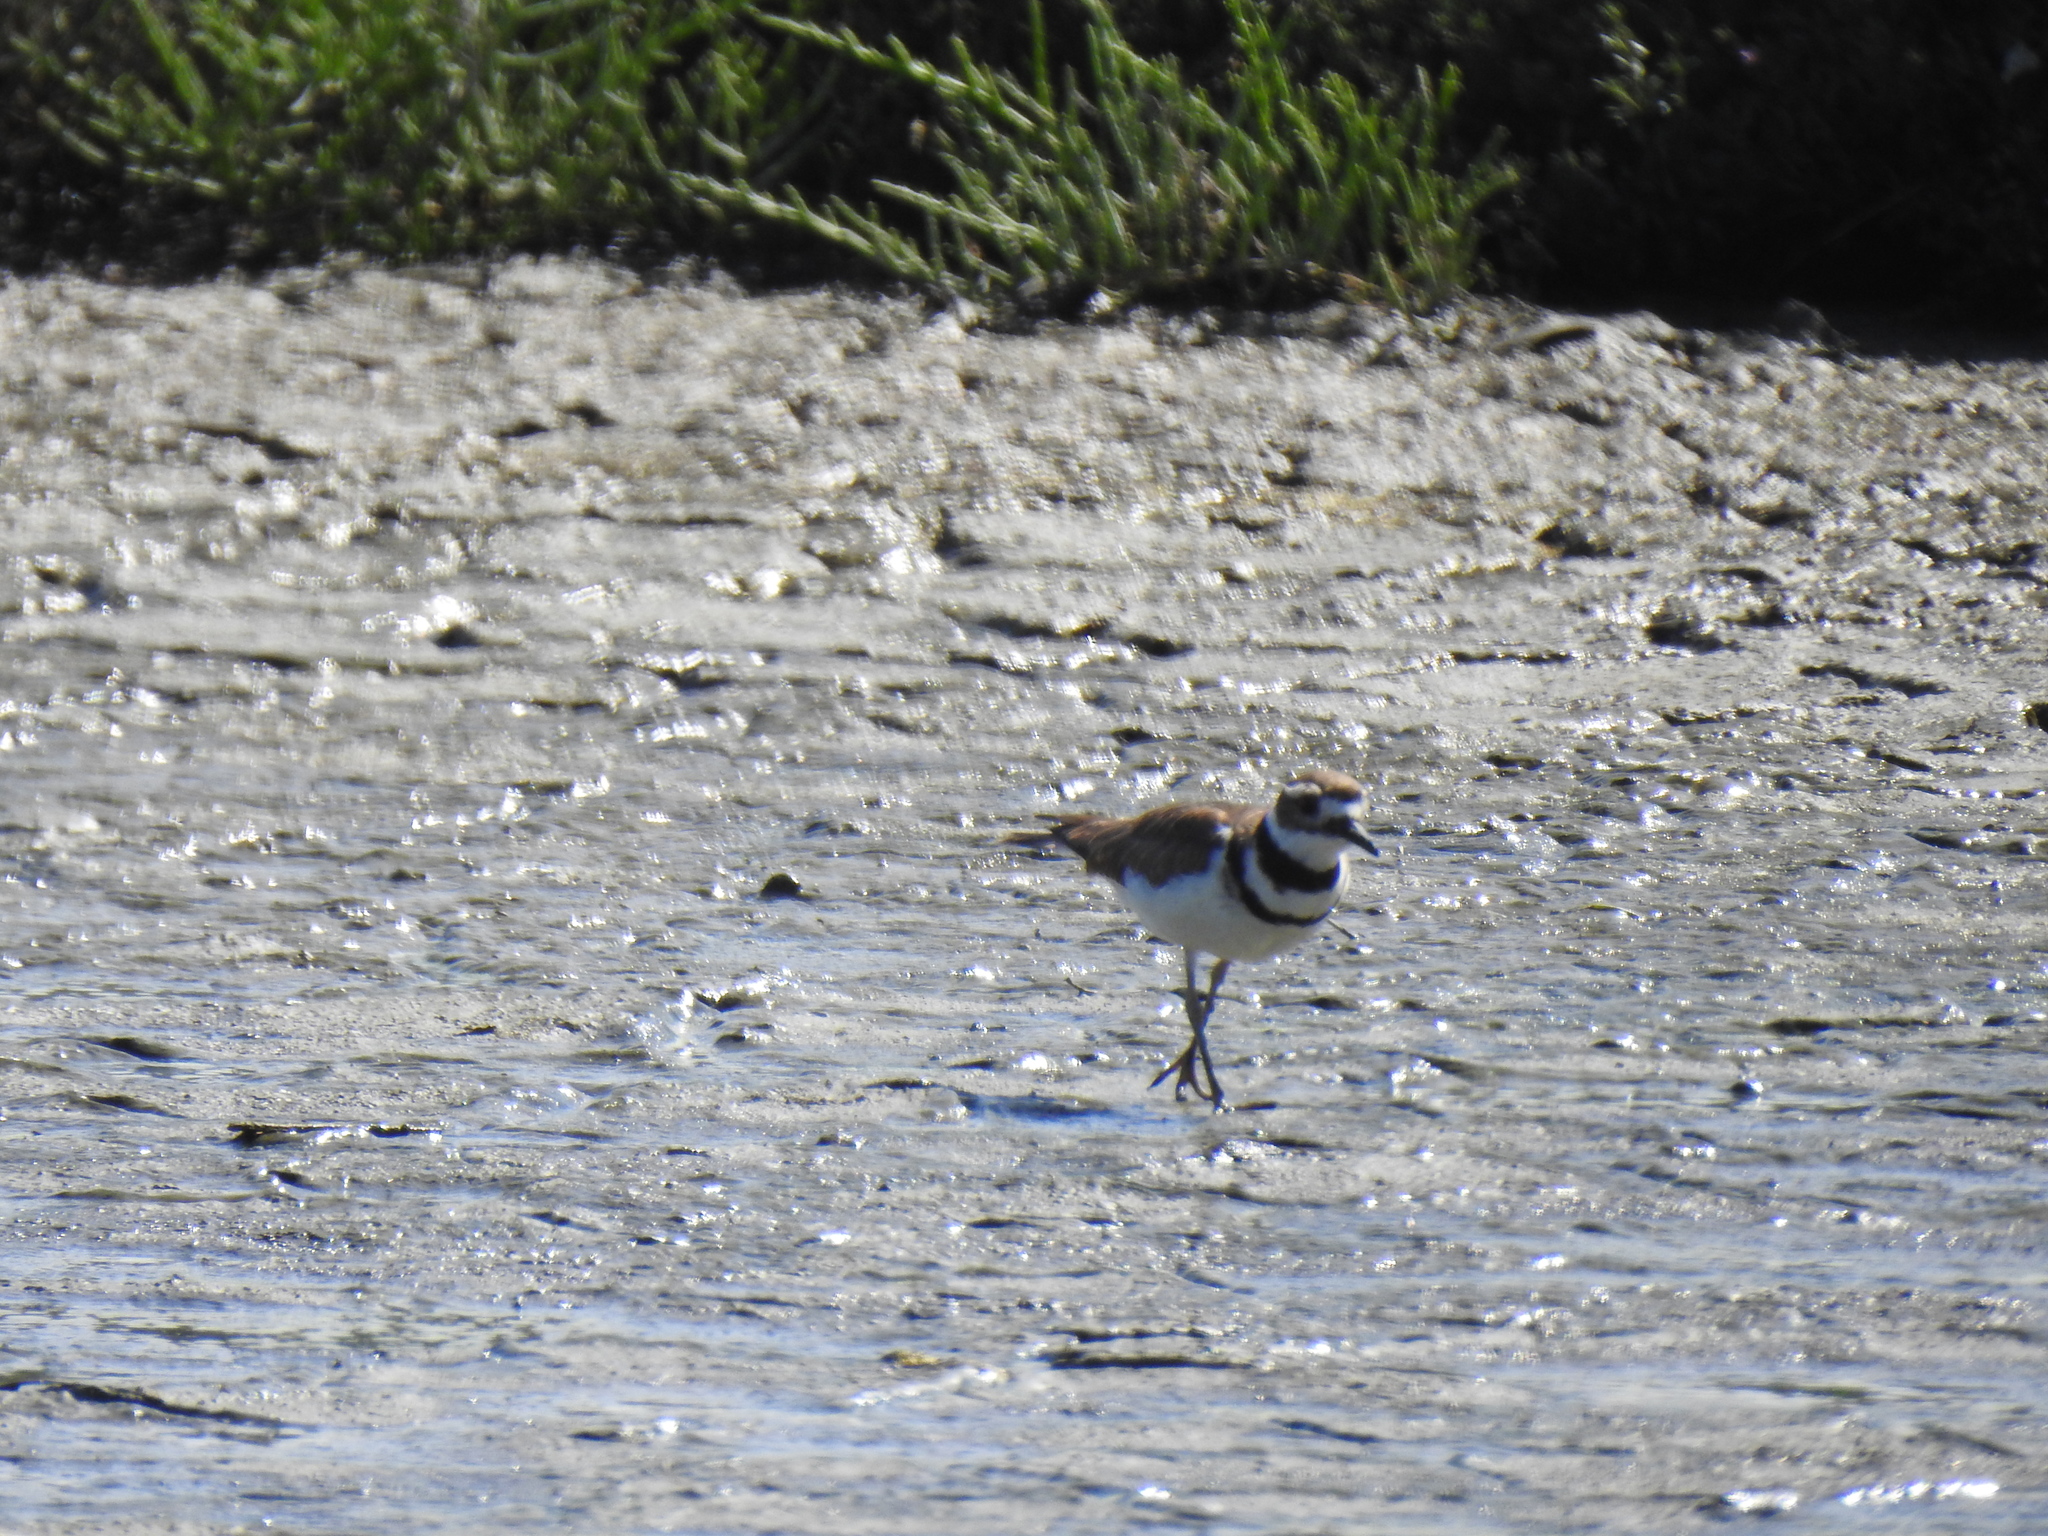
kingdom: Animalia
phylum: Chordata
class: Aves
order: Charadriiformes
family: Charadriidae
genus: Charadrius
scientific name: Charadrius vociferus
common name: Killdeer
